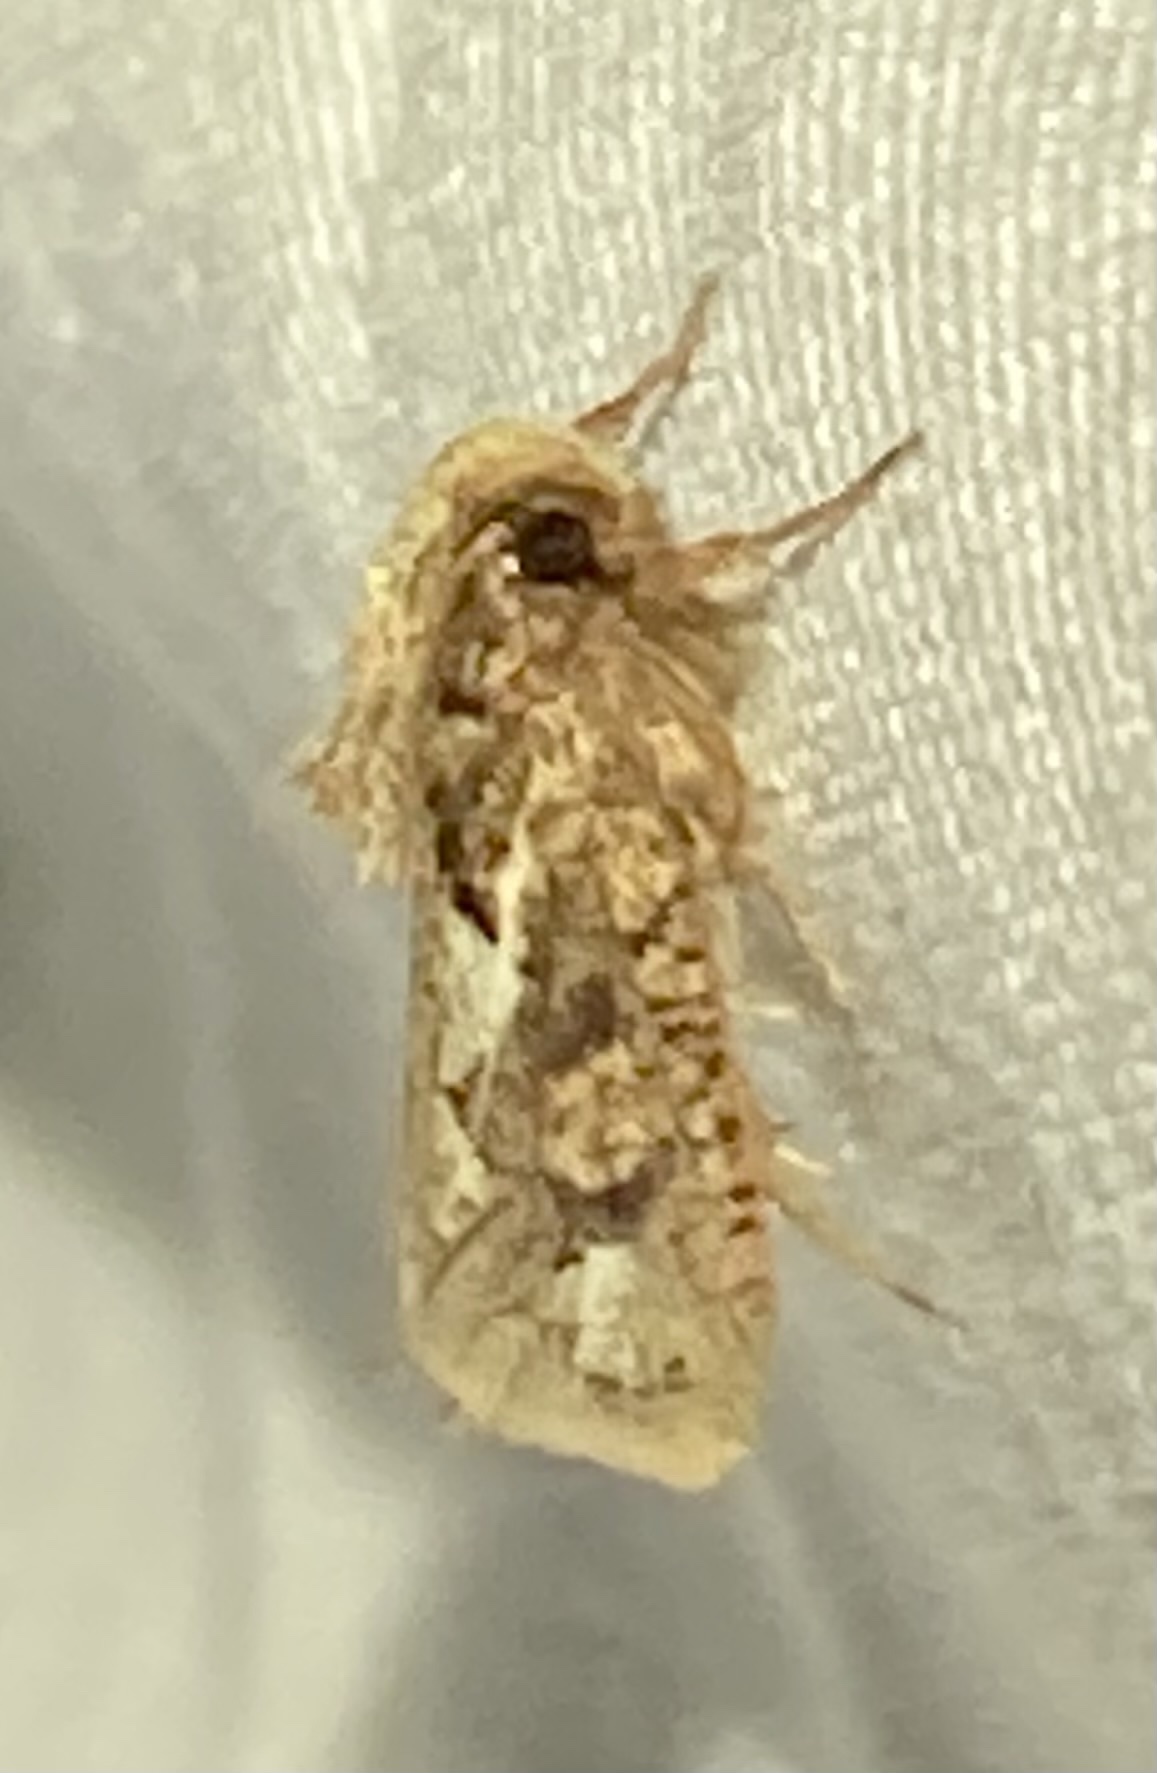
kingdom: Animalia
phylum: Arthropoda
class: Insecta
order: Lepidoptera
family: Tineidae
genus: Acrolophus
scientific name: Acrolophus walsinghami
